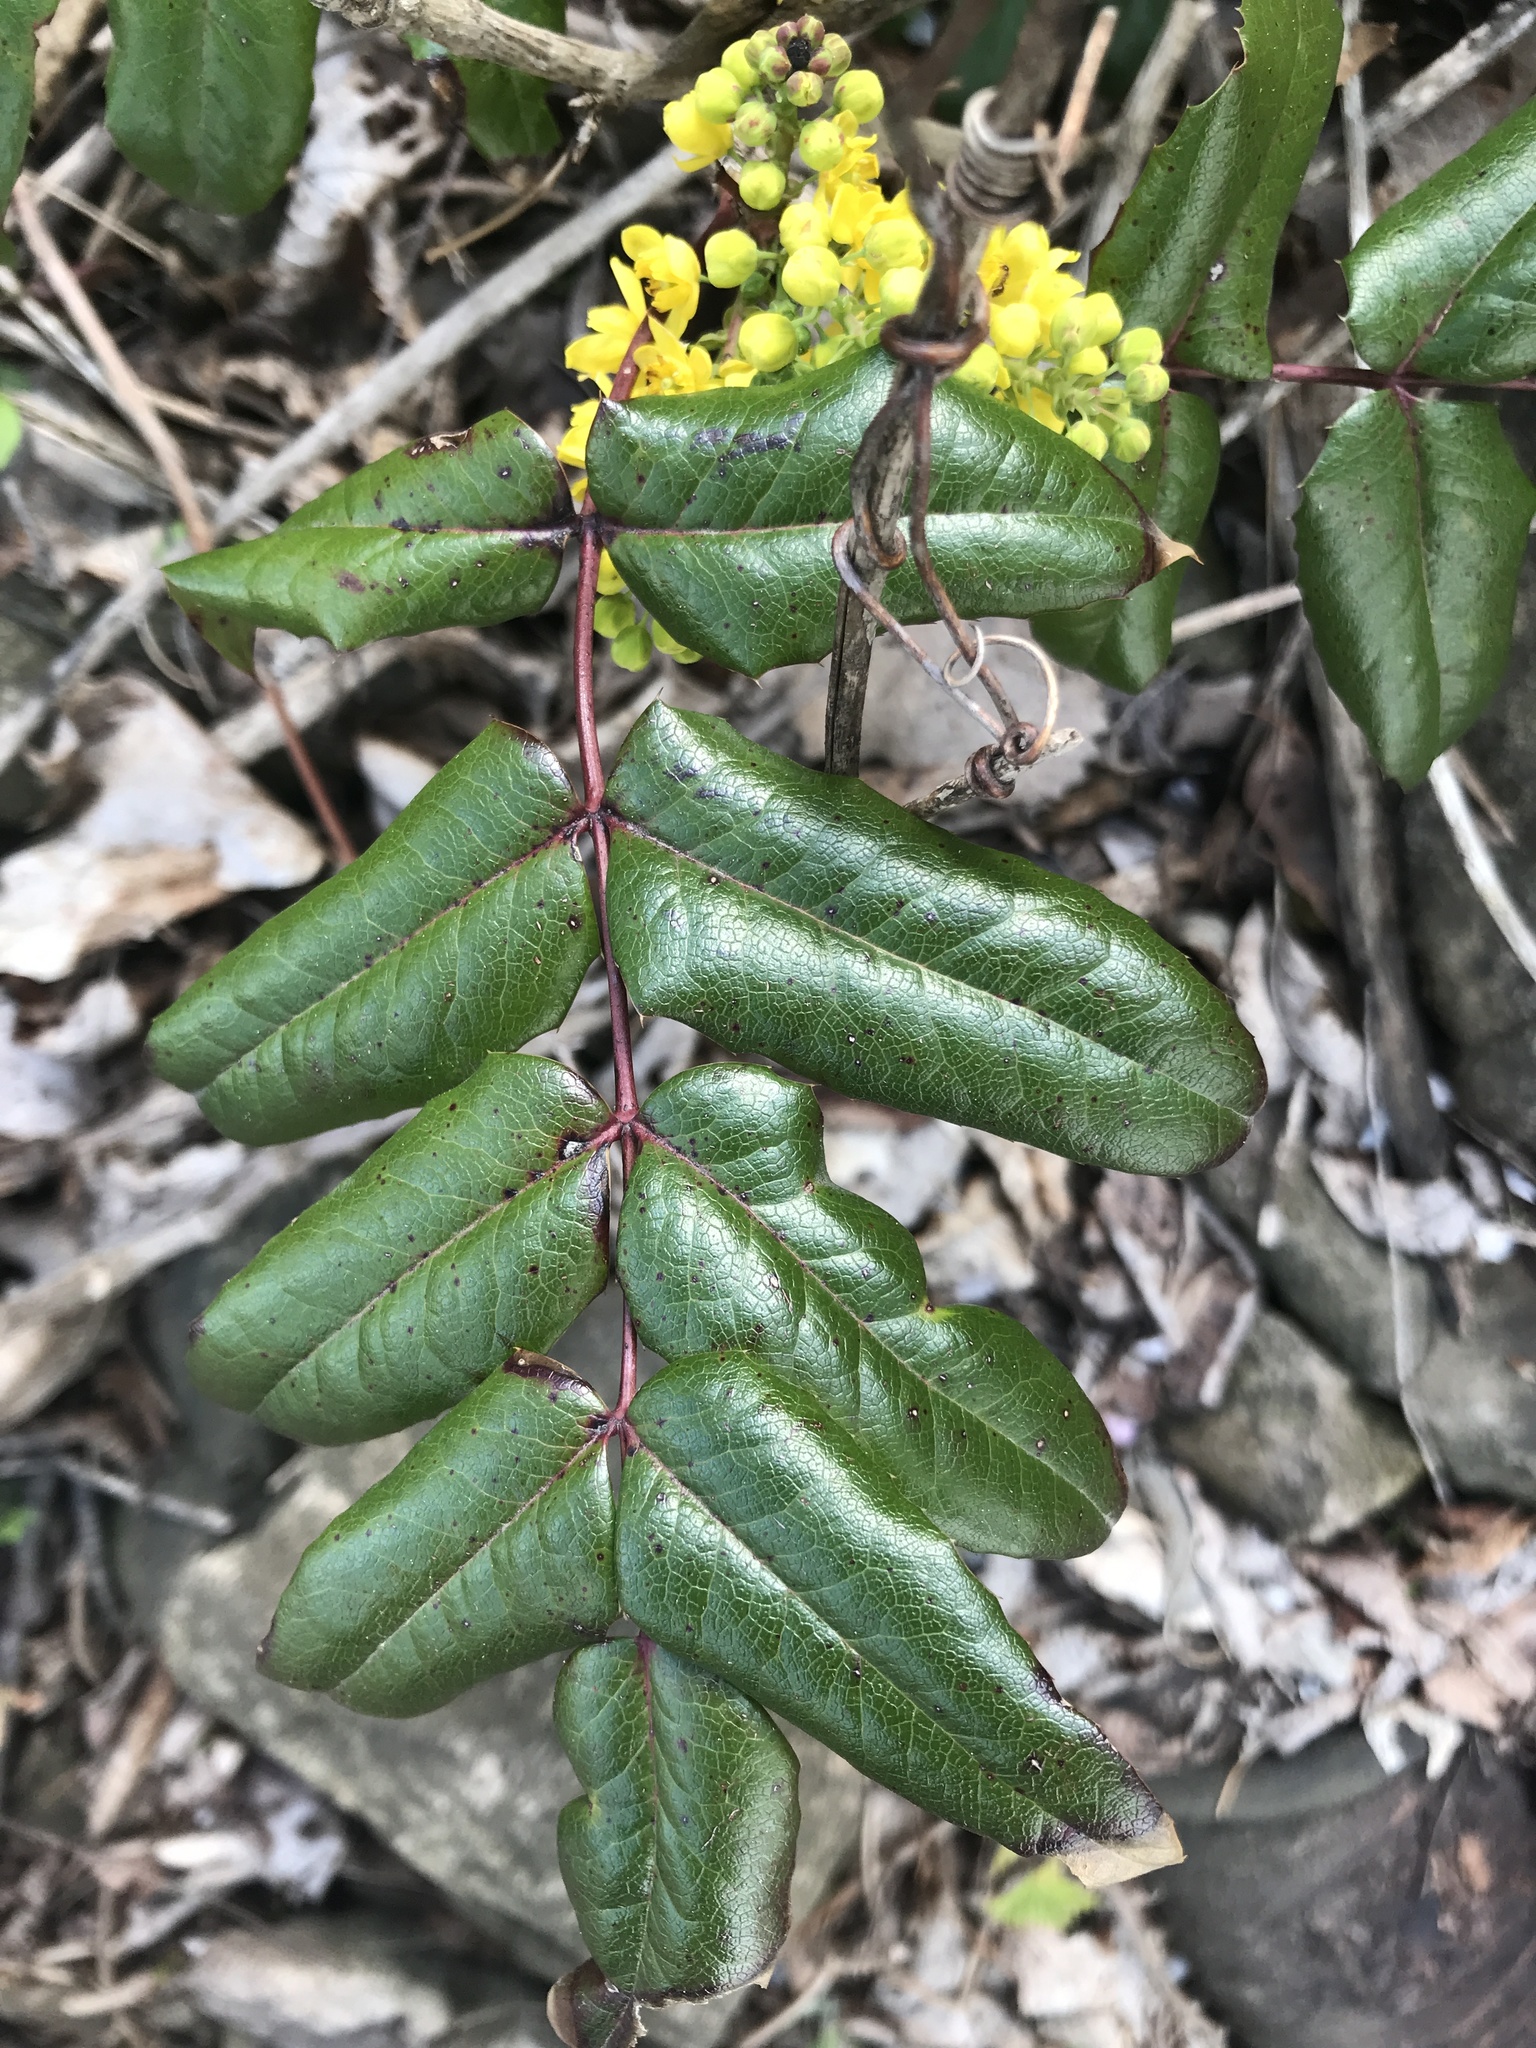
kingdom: Plantae
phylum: Tracheophyta
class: Magnoliopsida
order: Ranunculales
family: Berberidaceae
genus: Mahonia
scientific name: Mahonia aquifolium
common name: Oregon-grape
